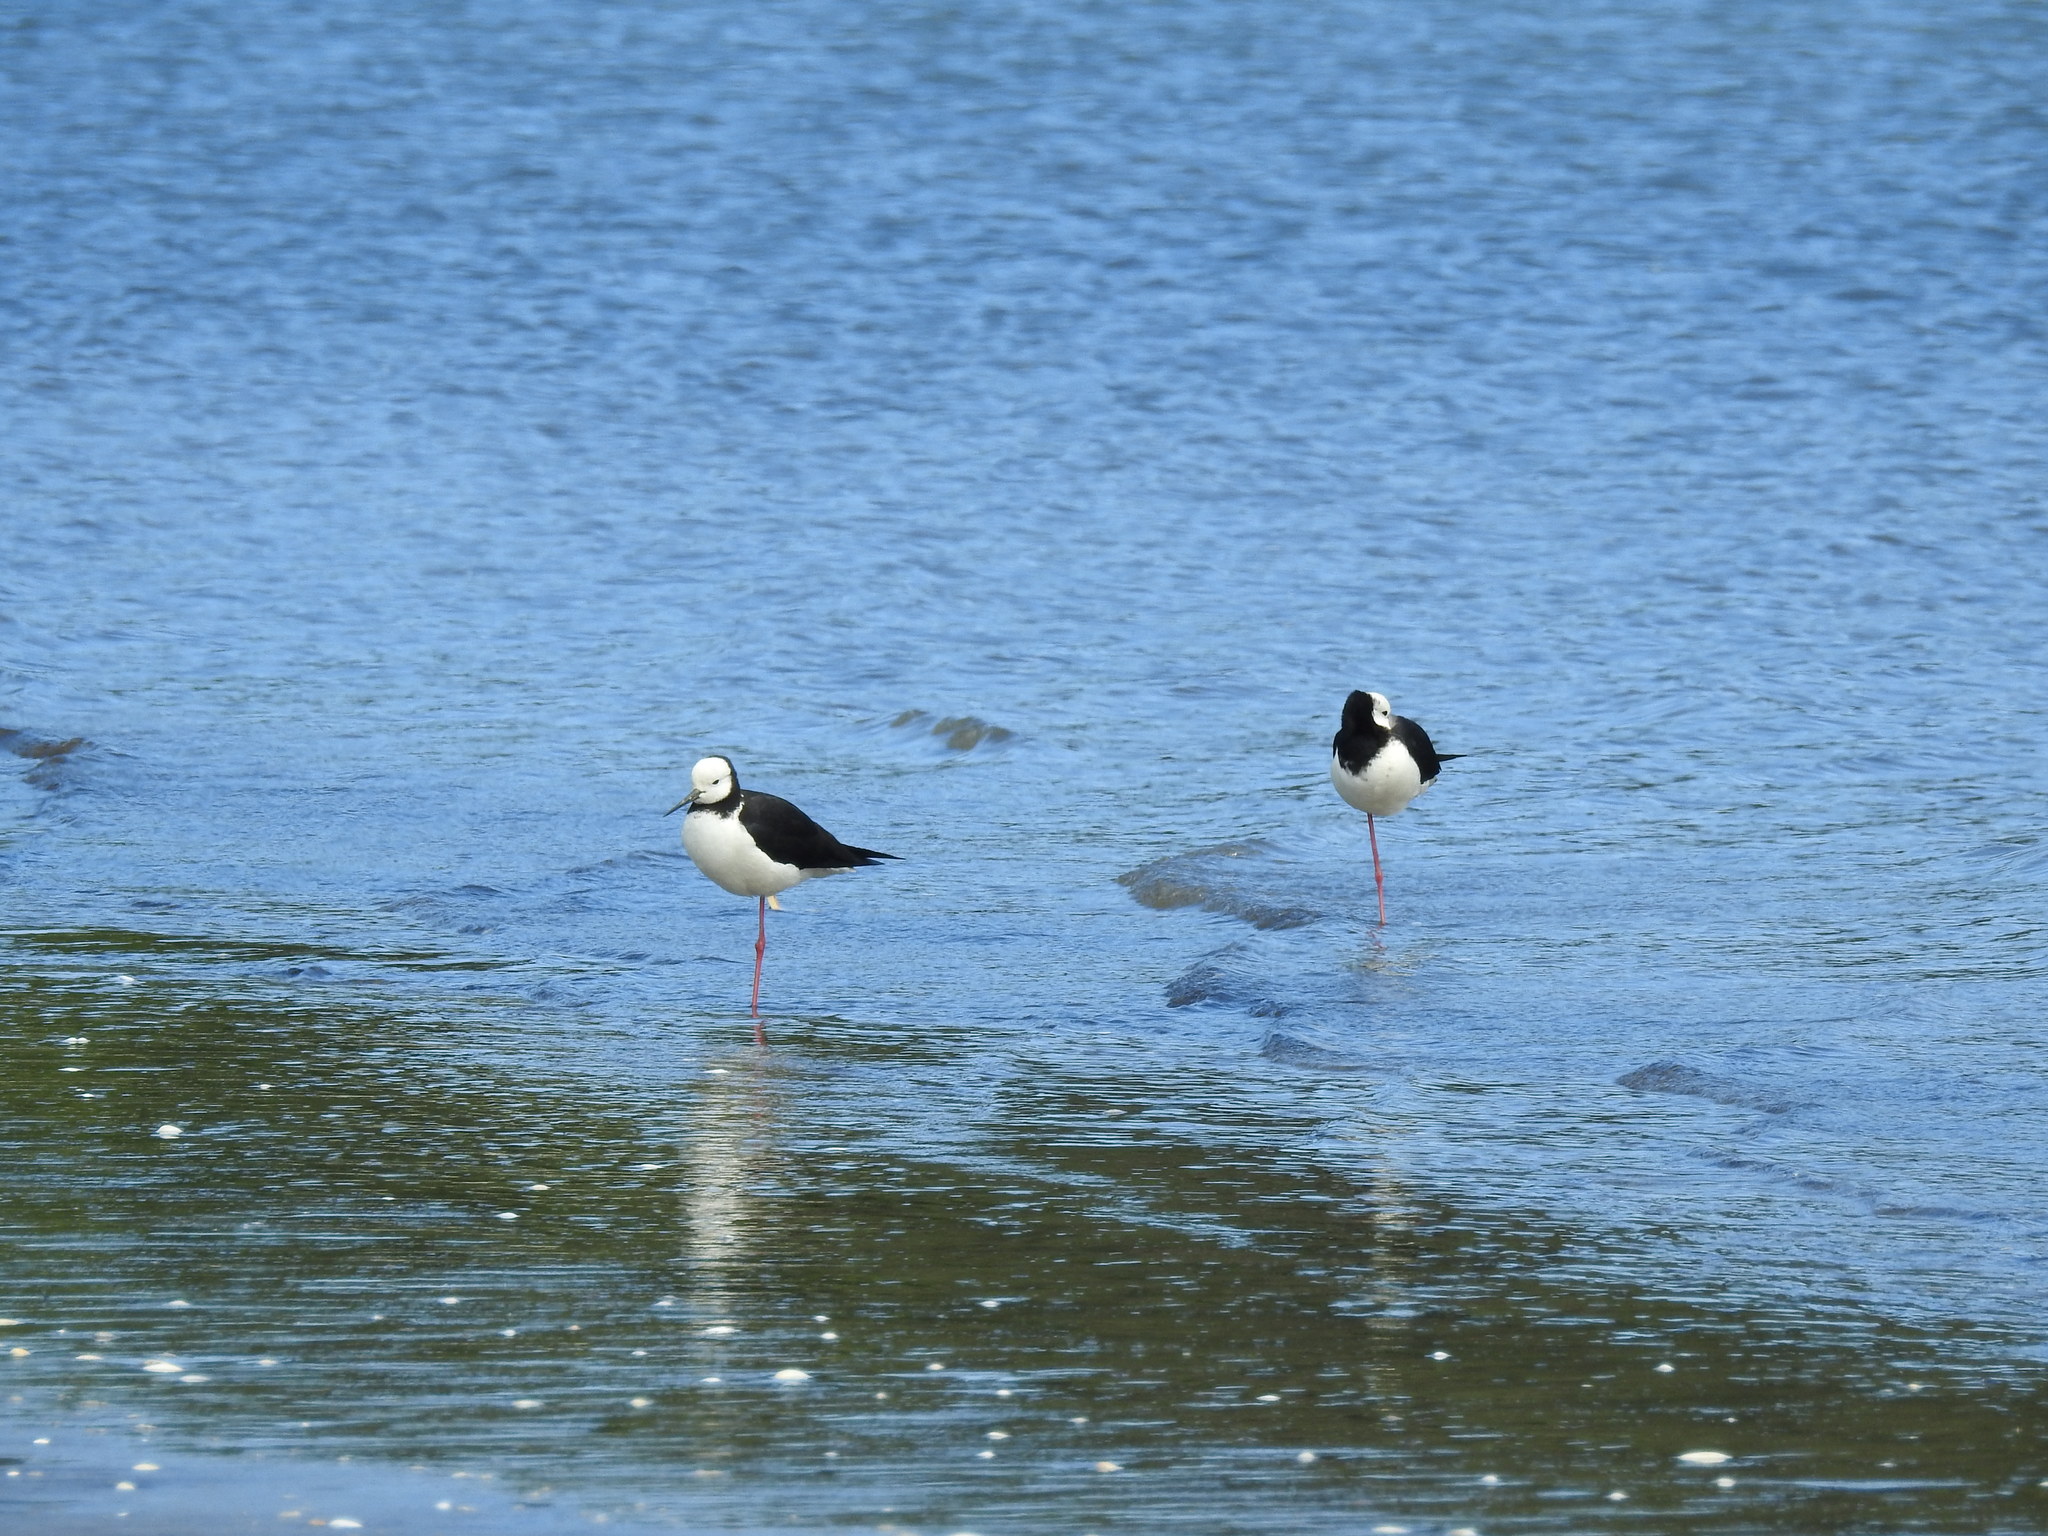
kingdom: Animalia
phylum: Chordata
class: Aves
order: Charadriiformes
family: Recurvirostridae
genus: Himantopus
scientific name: Himantopus leucocephalus
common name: White-headed stilt
